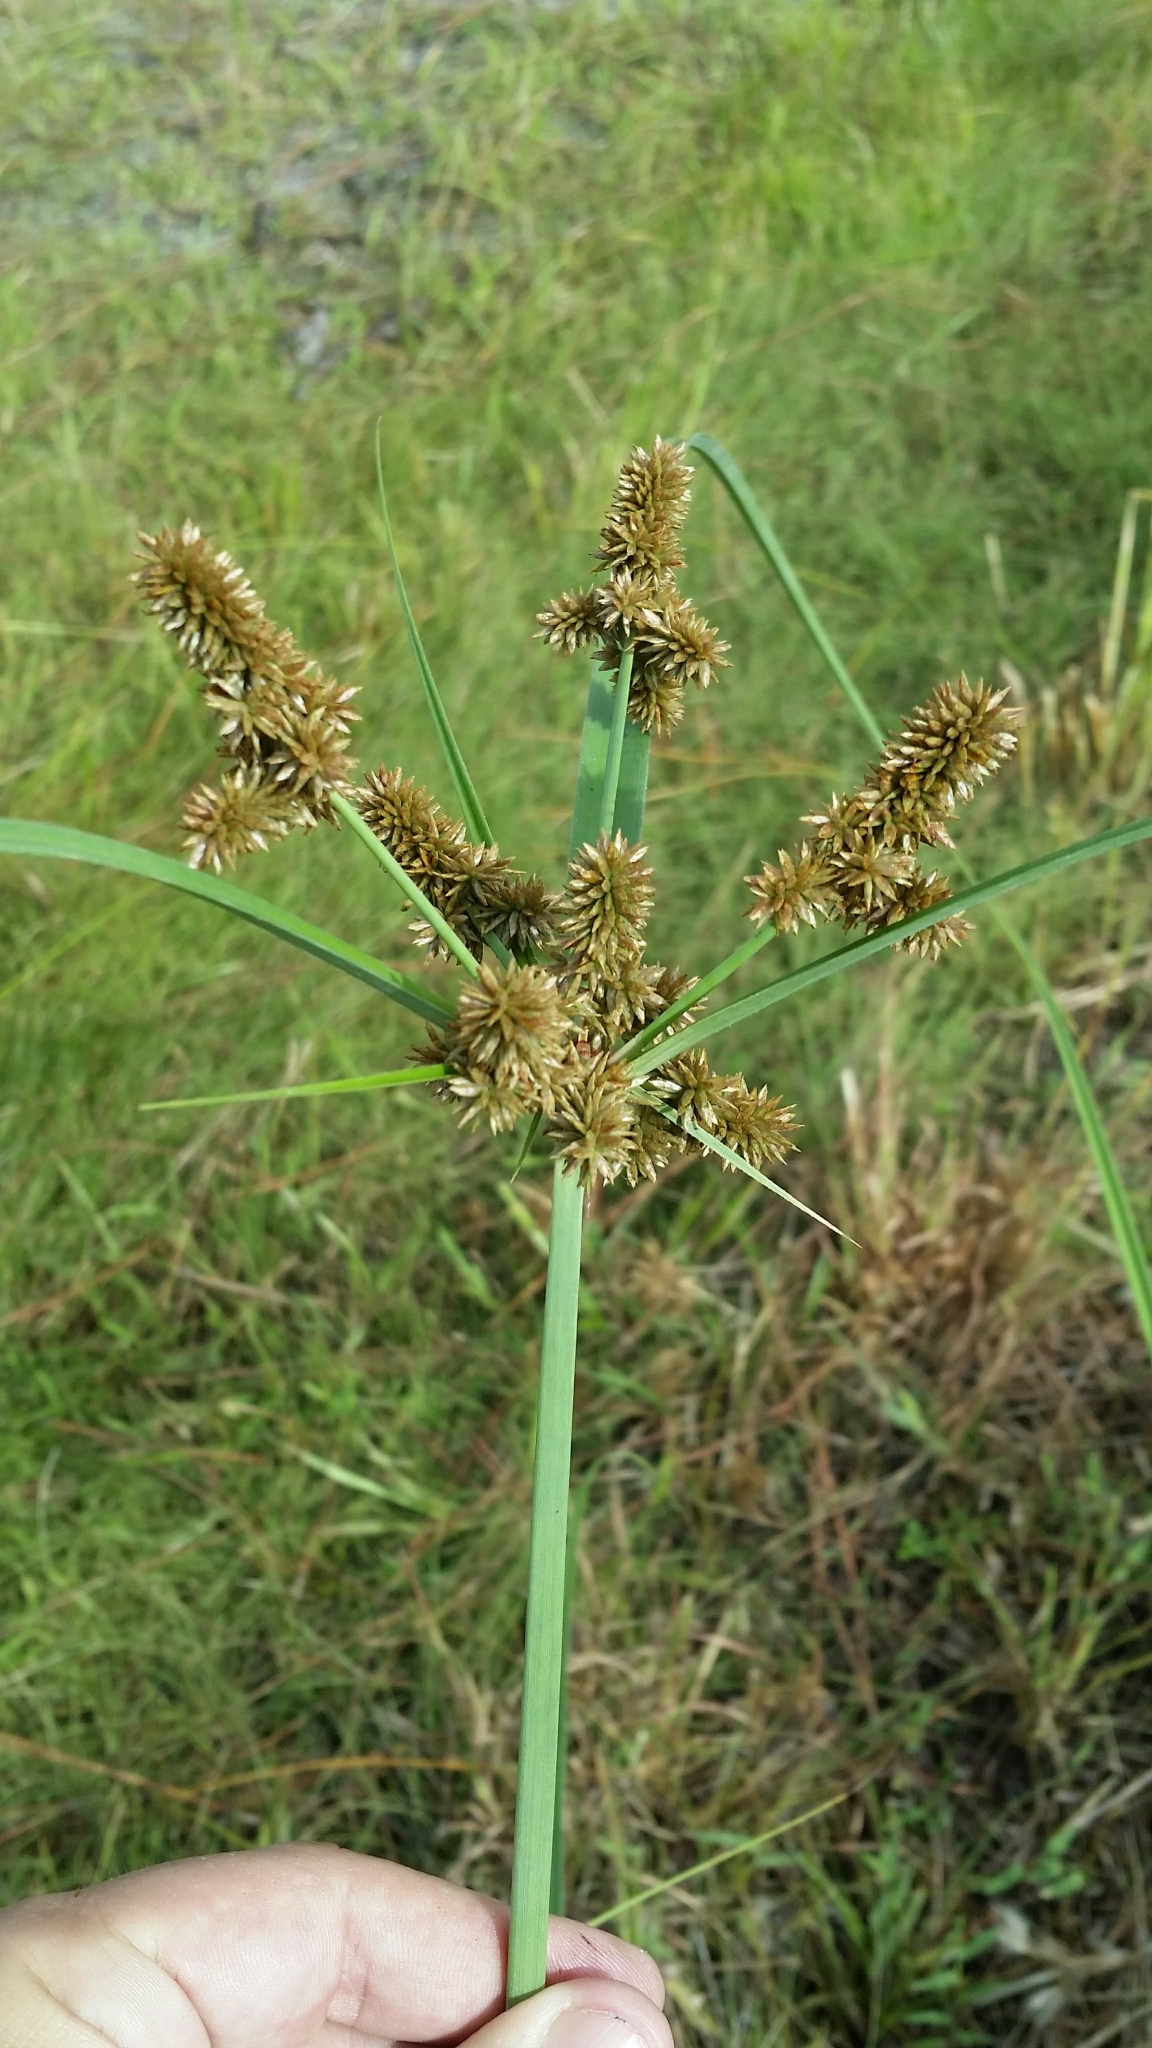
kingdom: Plantae
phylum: Tracheophyta
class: Liliopsida
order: Poales
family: Cyperaceae
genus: Cyperus
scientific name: Cyperus ligularis
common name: Swamp flat sedge
